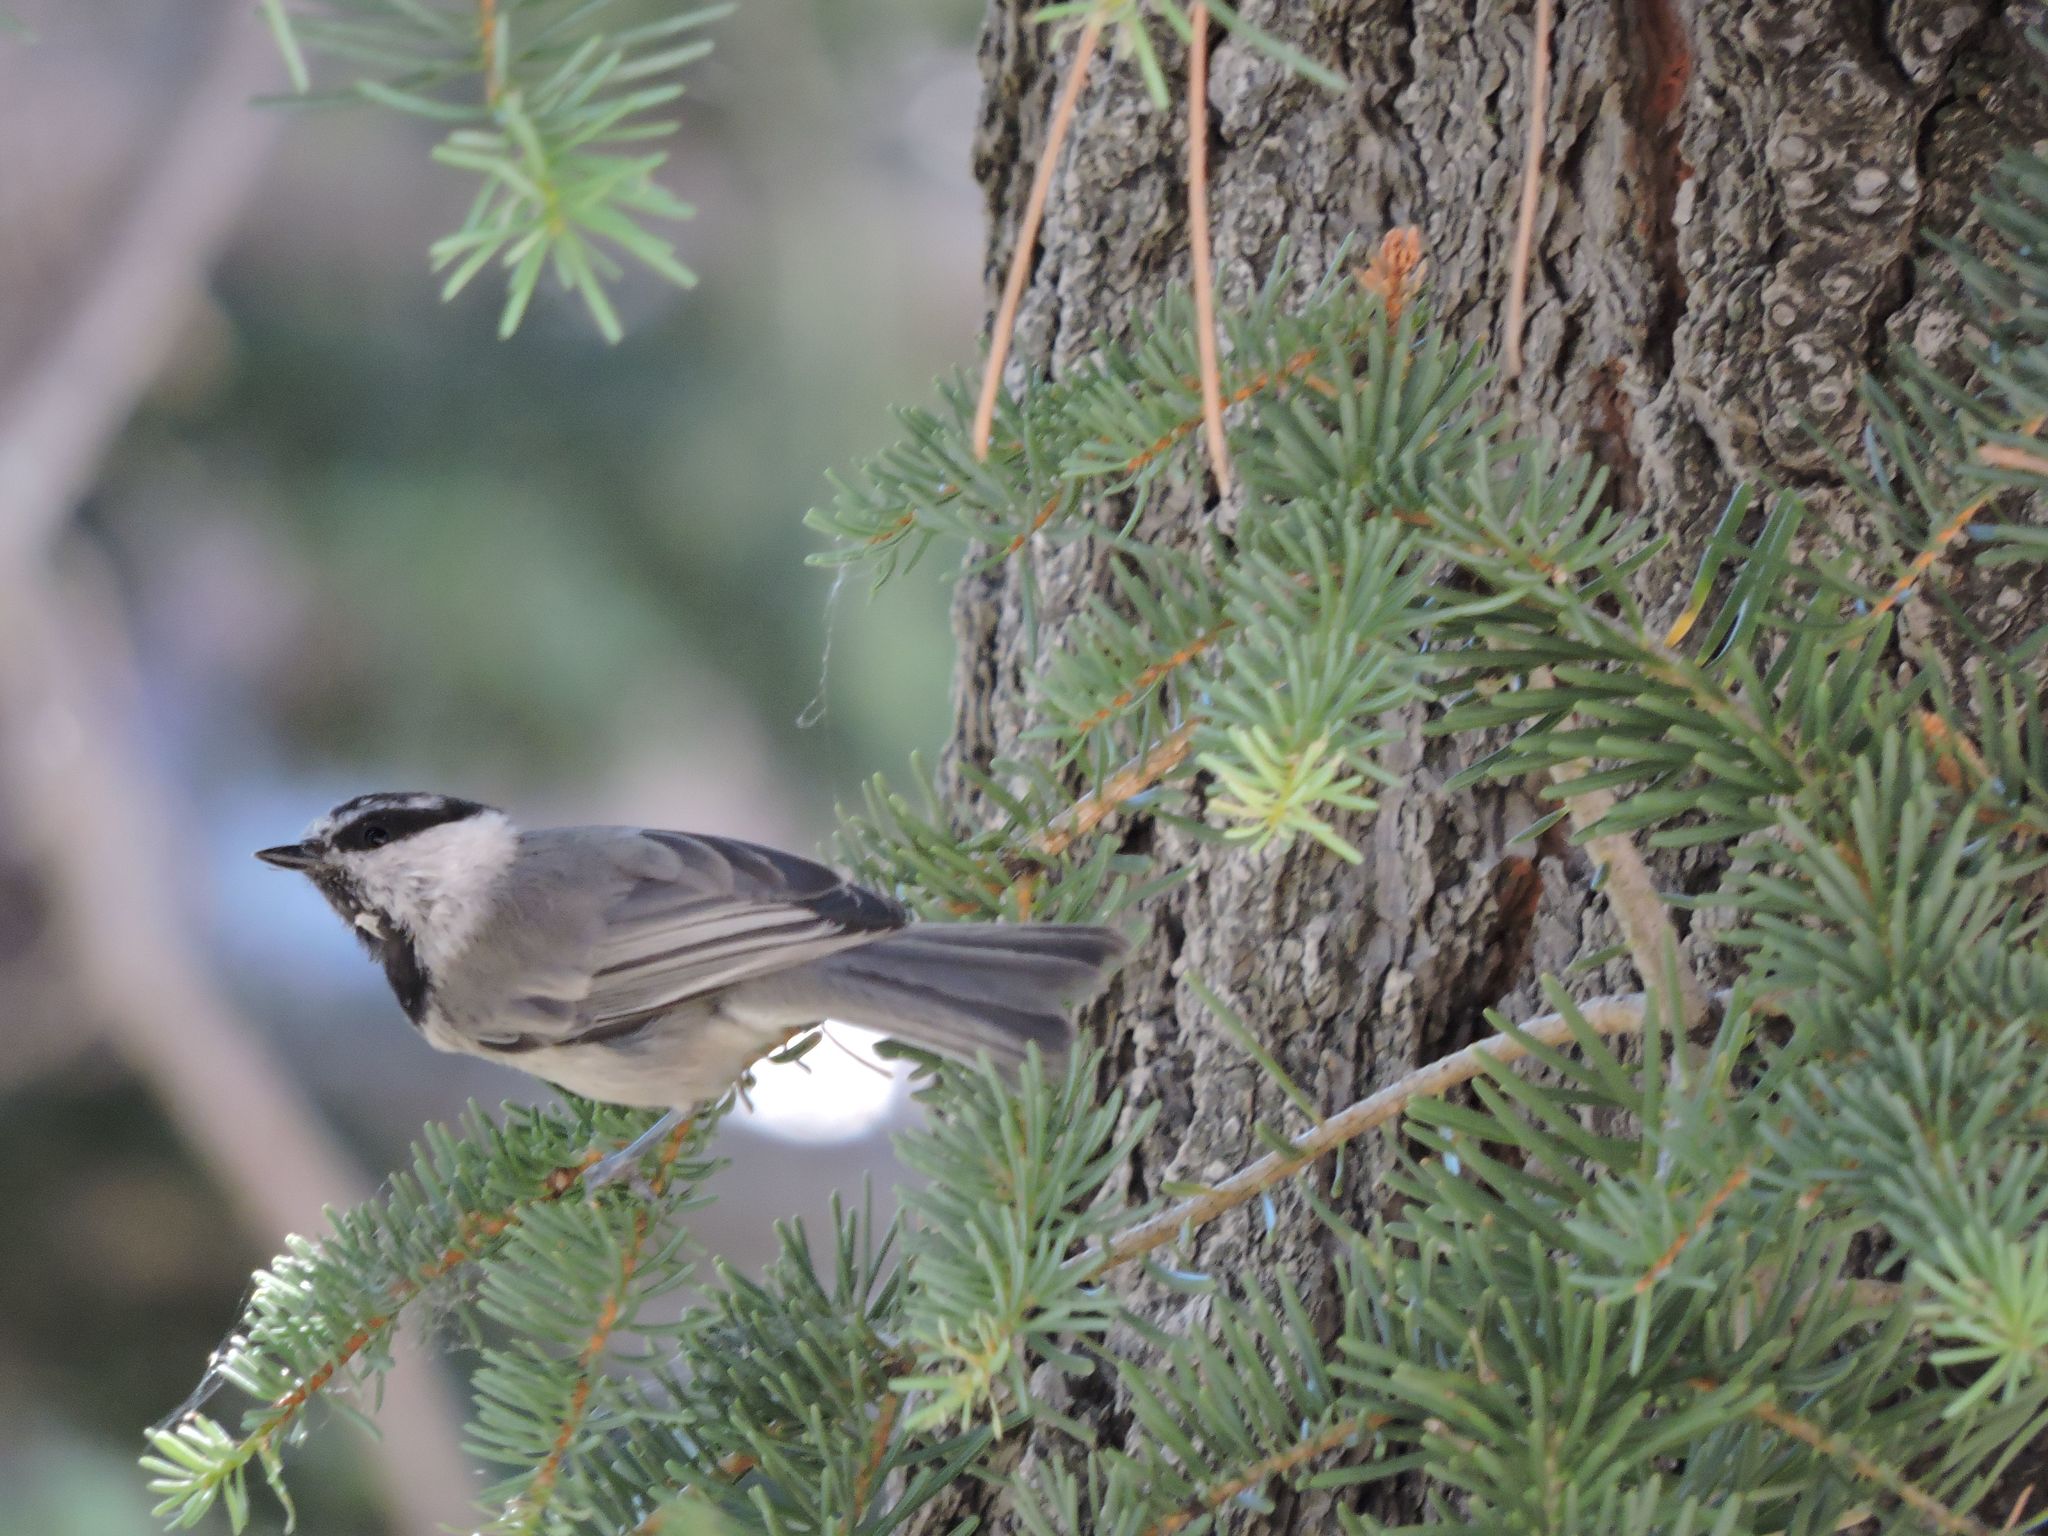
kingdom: Animalia
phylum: Chordata
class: Aves
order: Passeriformes
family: Paridae
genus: Poecile
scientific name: Poecile gambeli
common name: Mountain chickadee
